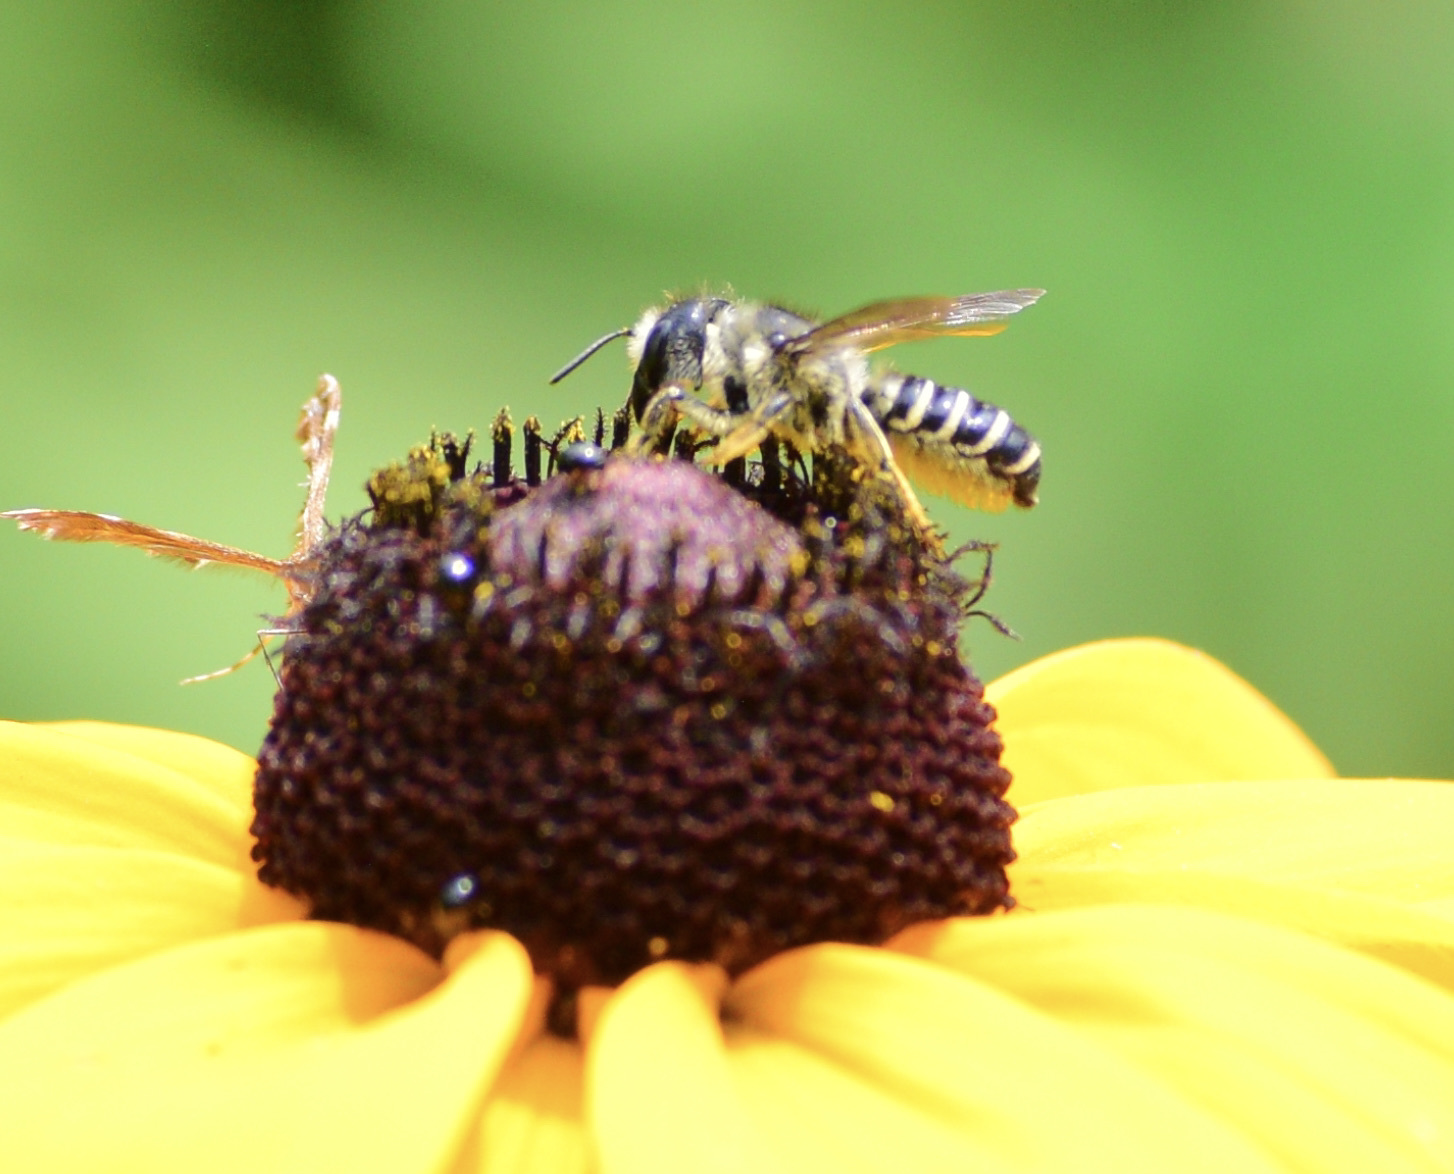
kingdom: Animalia
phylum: Arthropoda
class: Insecta
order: Hymenoptera
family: Megachilidae
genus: Megachile
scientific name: Megachile pugnata
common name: Pugnacious leafcutter bee
